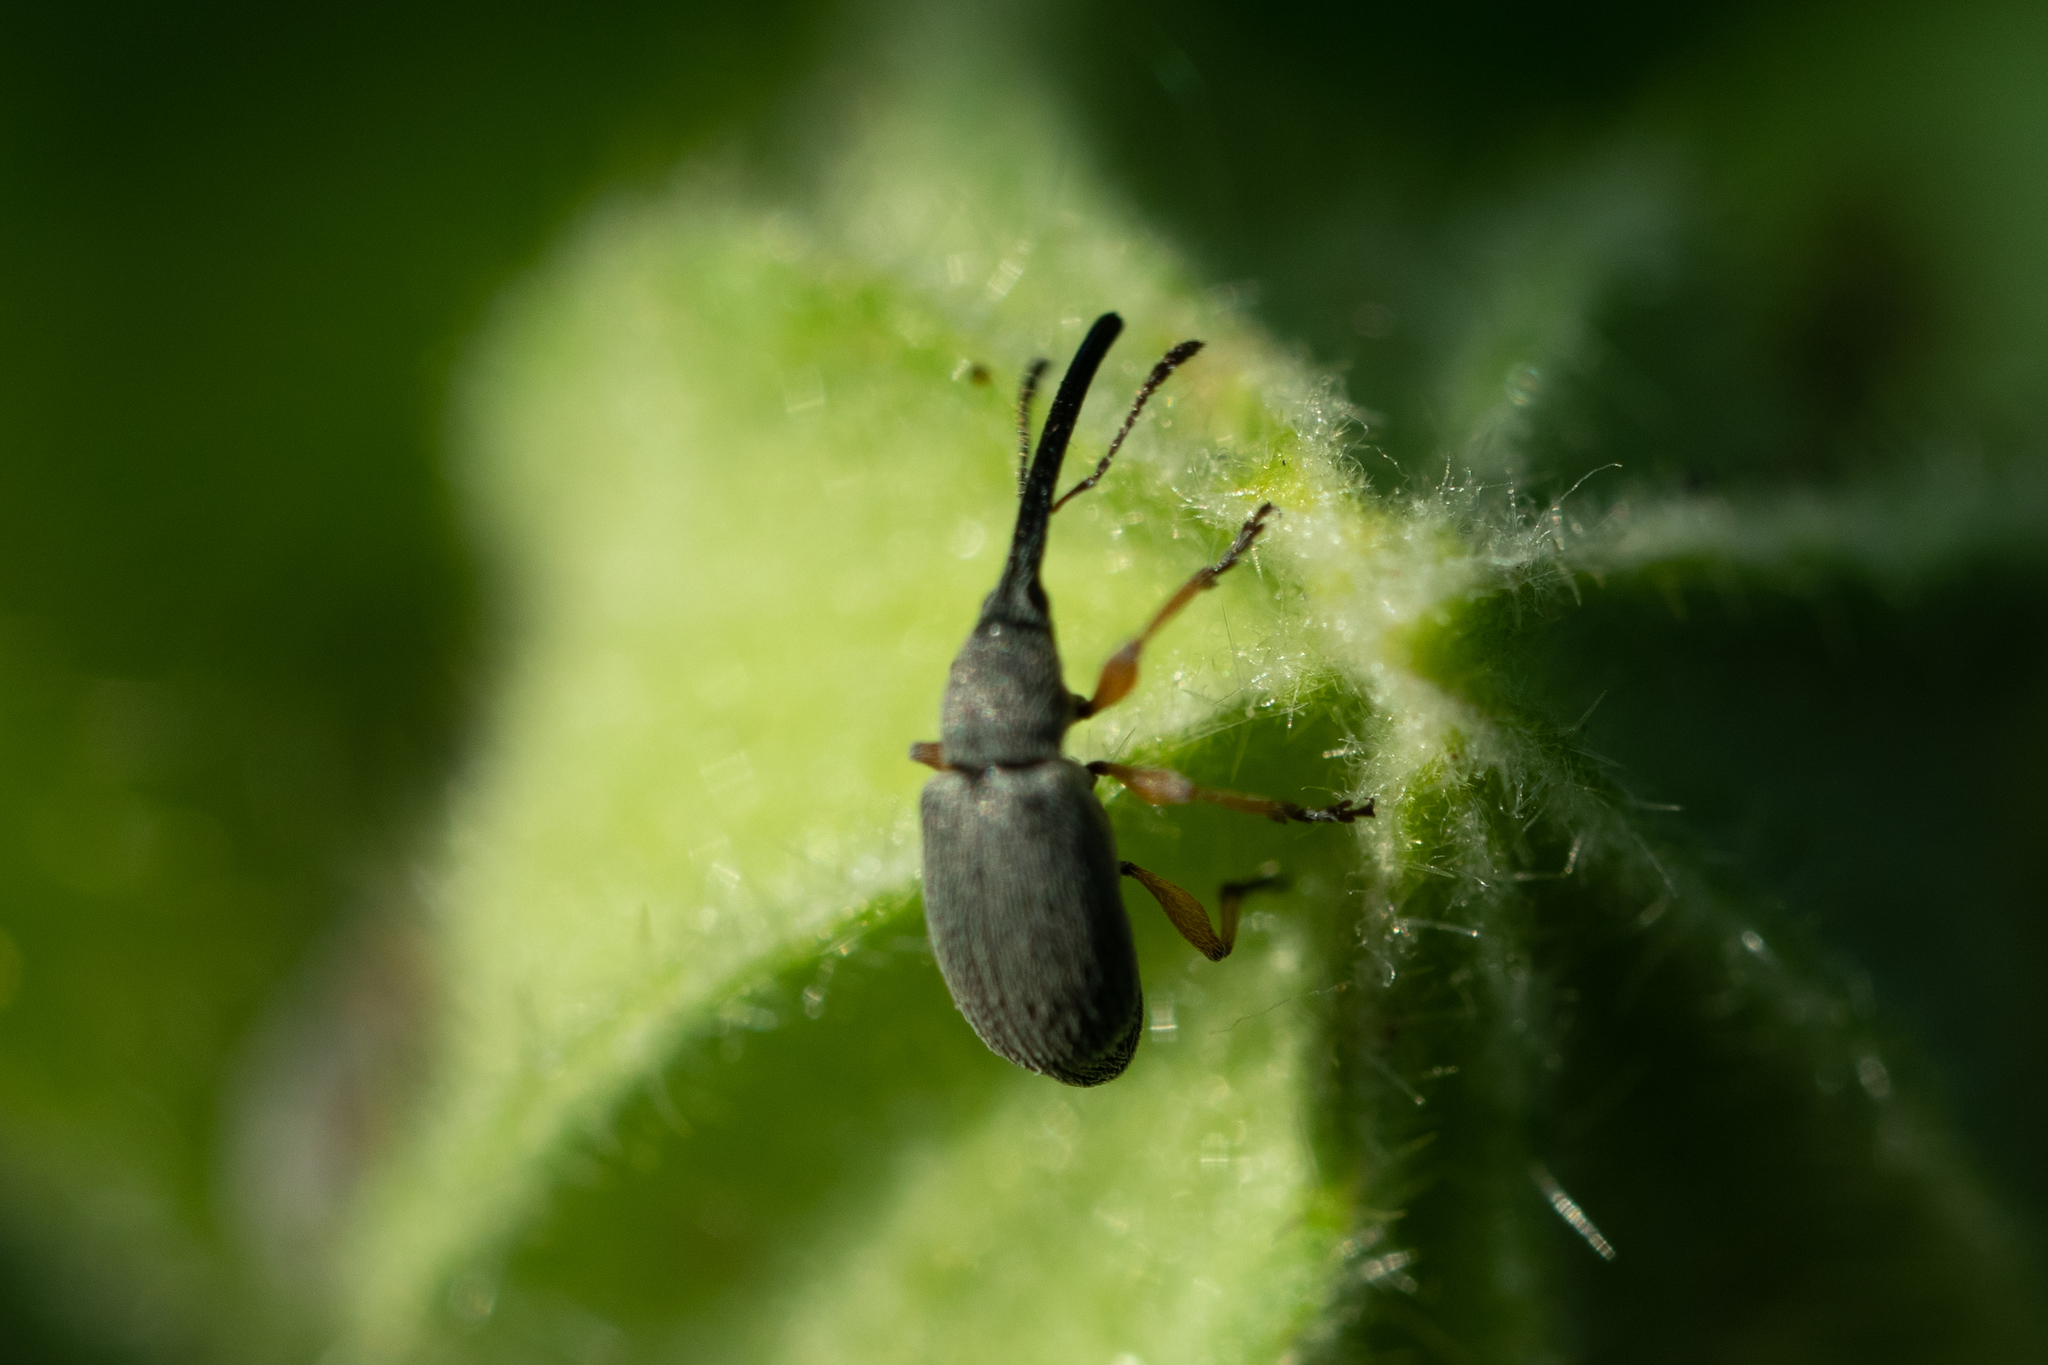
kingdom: Animalia
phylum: Arthropoda
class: Insecta
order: Coleoptera
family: Brentidae
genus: Rhopalapion
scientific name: Rhopalapion longirostre
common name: Hollyhock weevil
